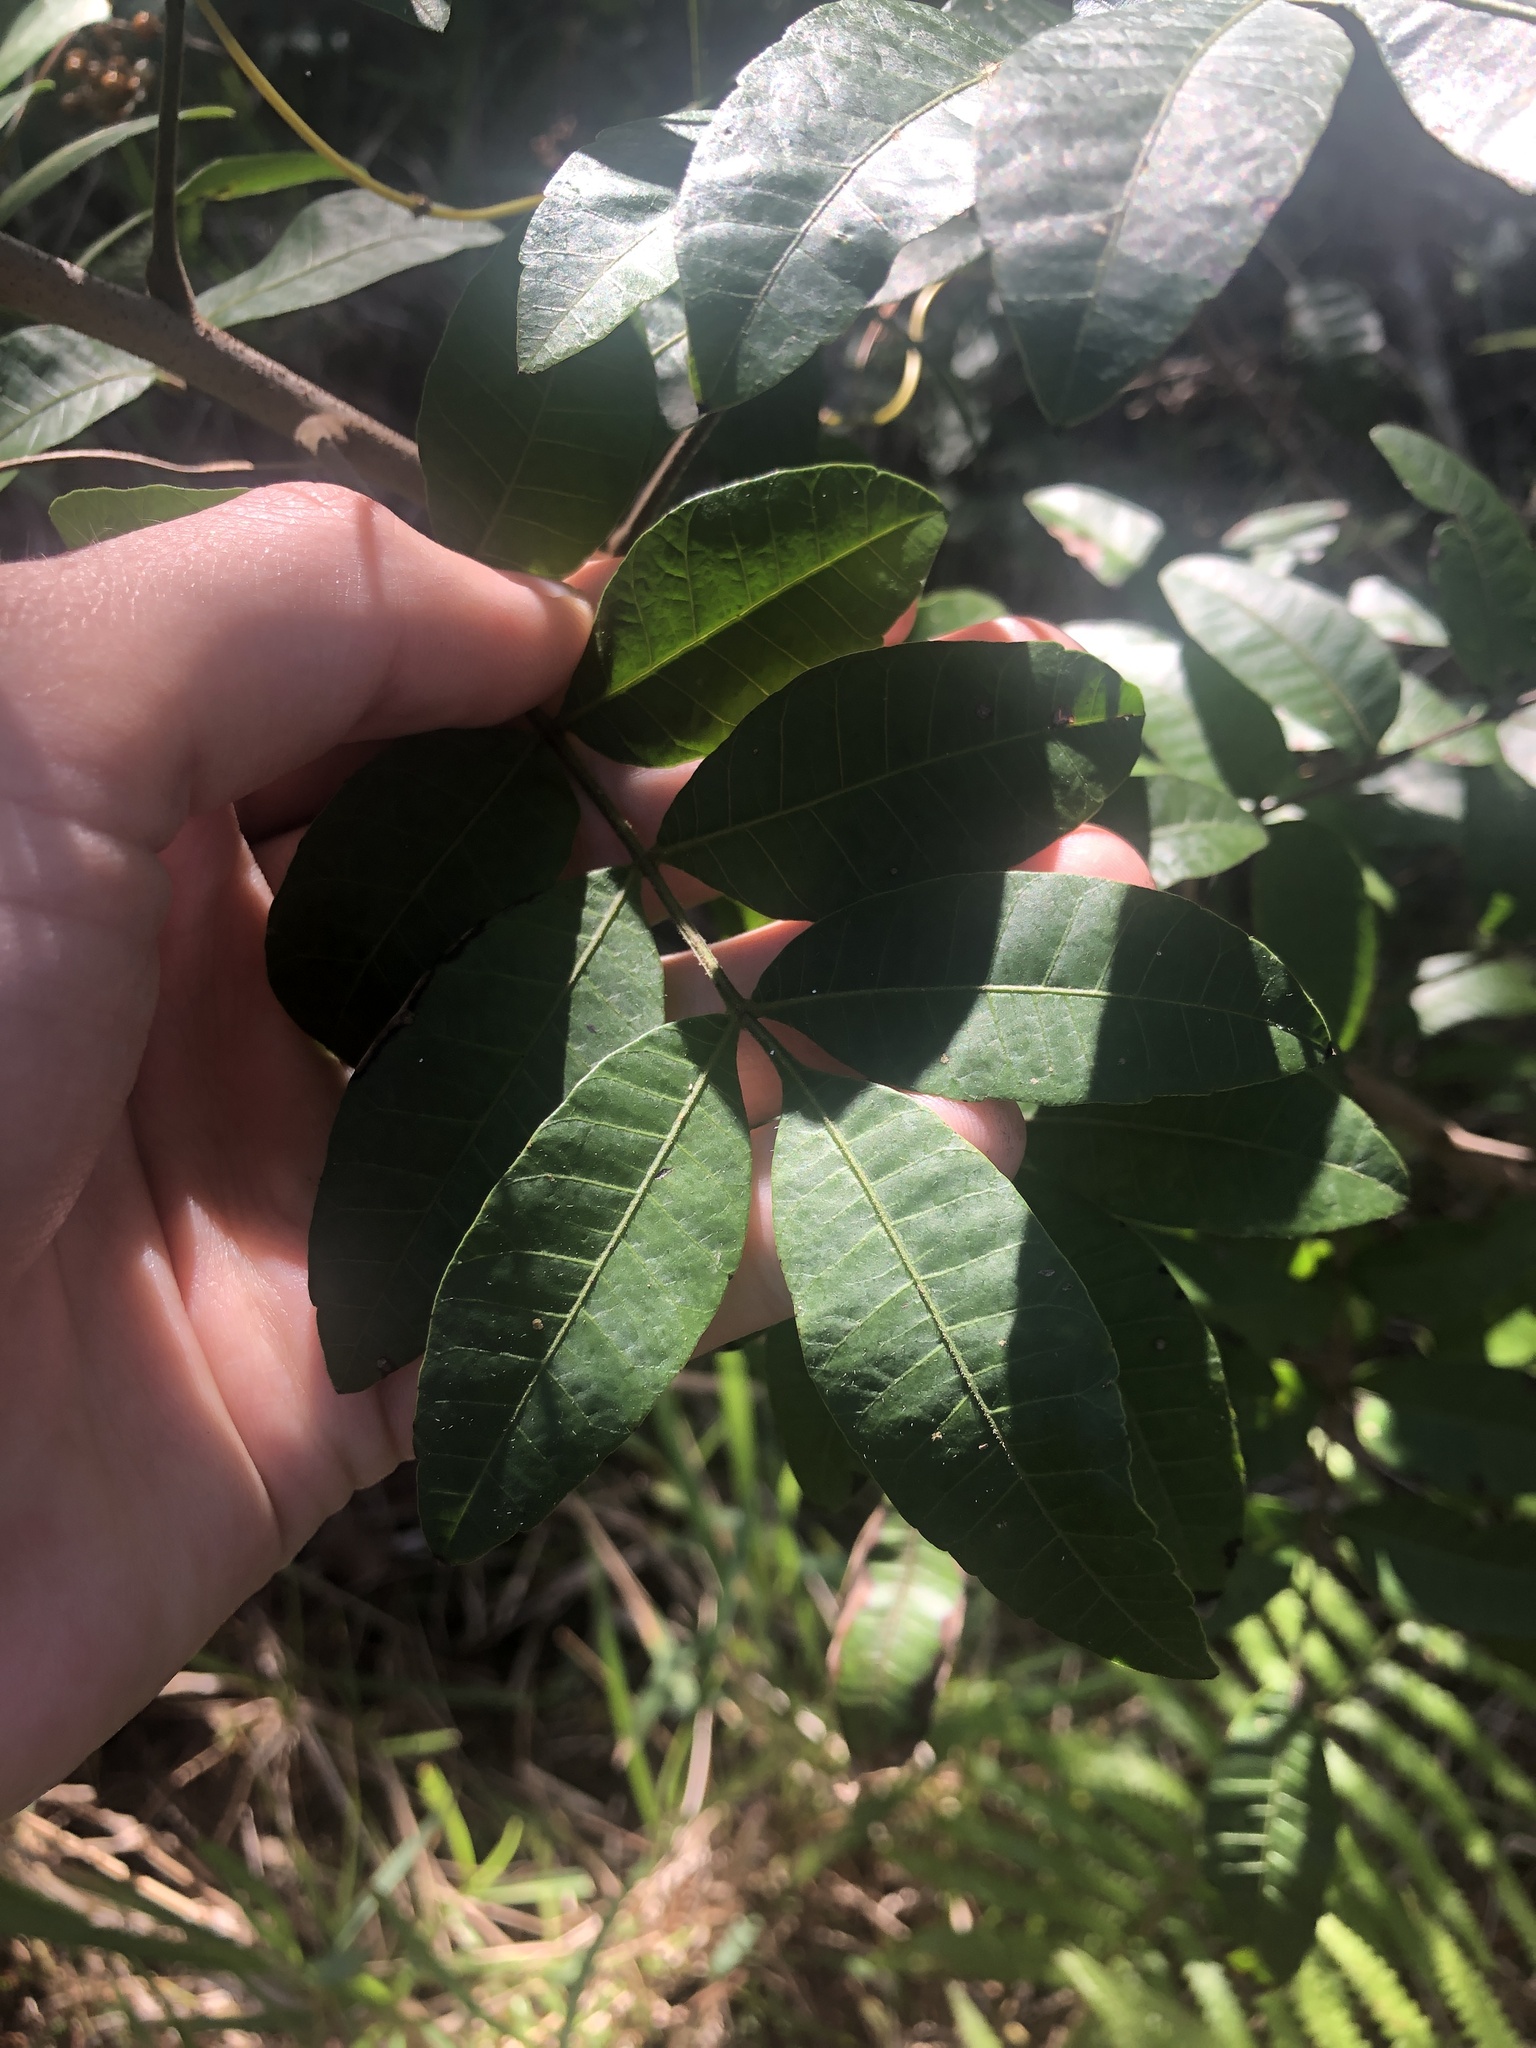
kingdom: Plantae
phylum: Tracheophyta
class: Magnoliopsida
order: Sapindales
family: Anacardiaceae
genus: Schinus
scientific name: Schinus terebinthifolia
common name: Brazilian peppertree
